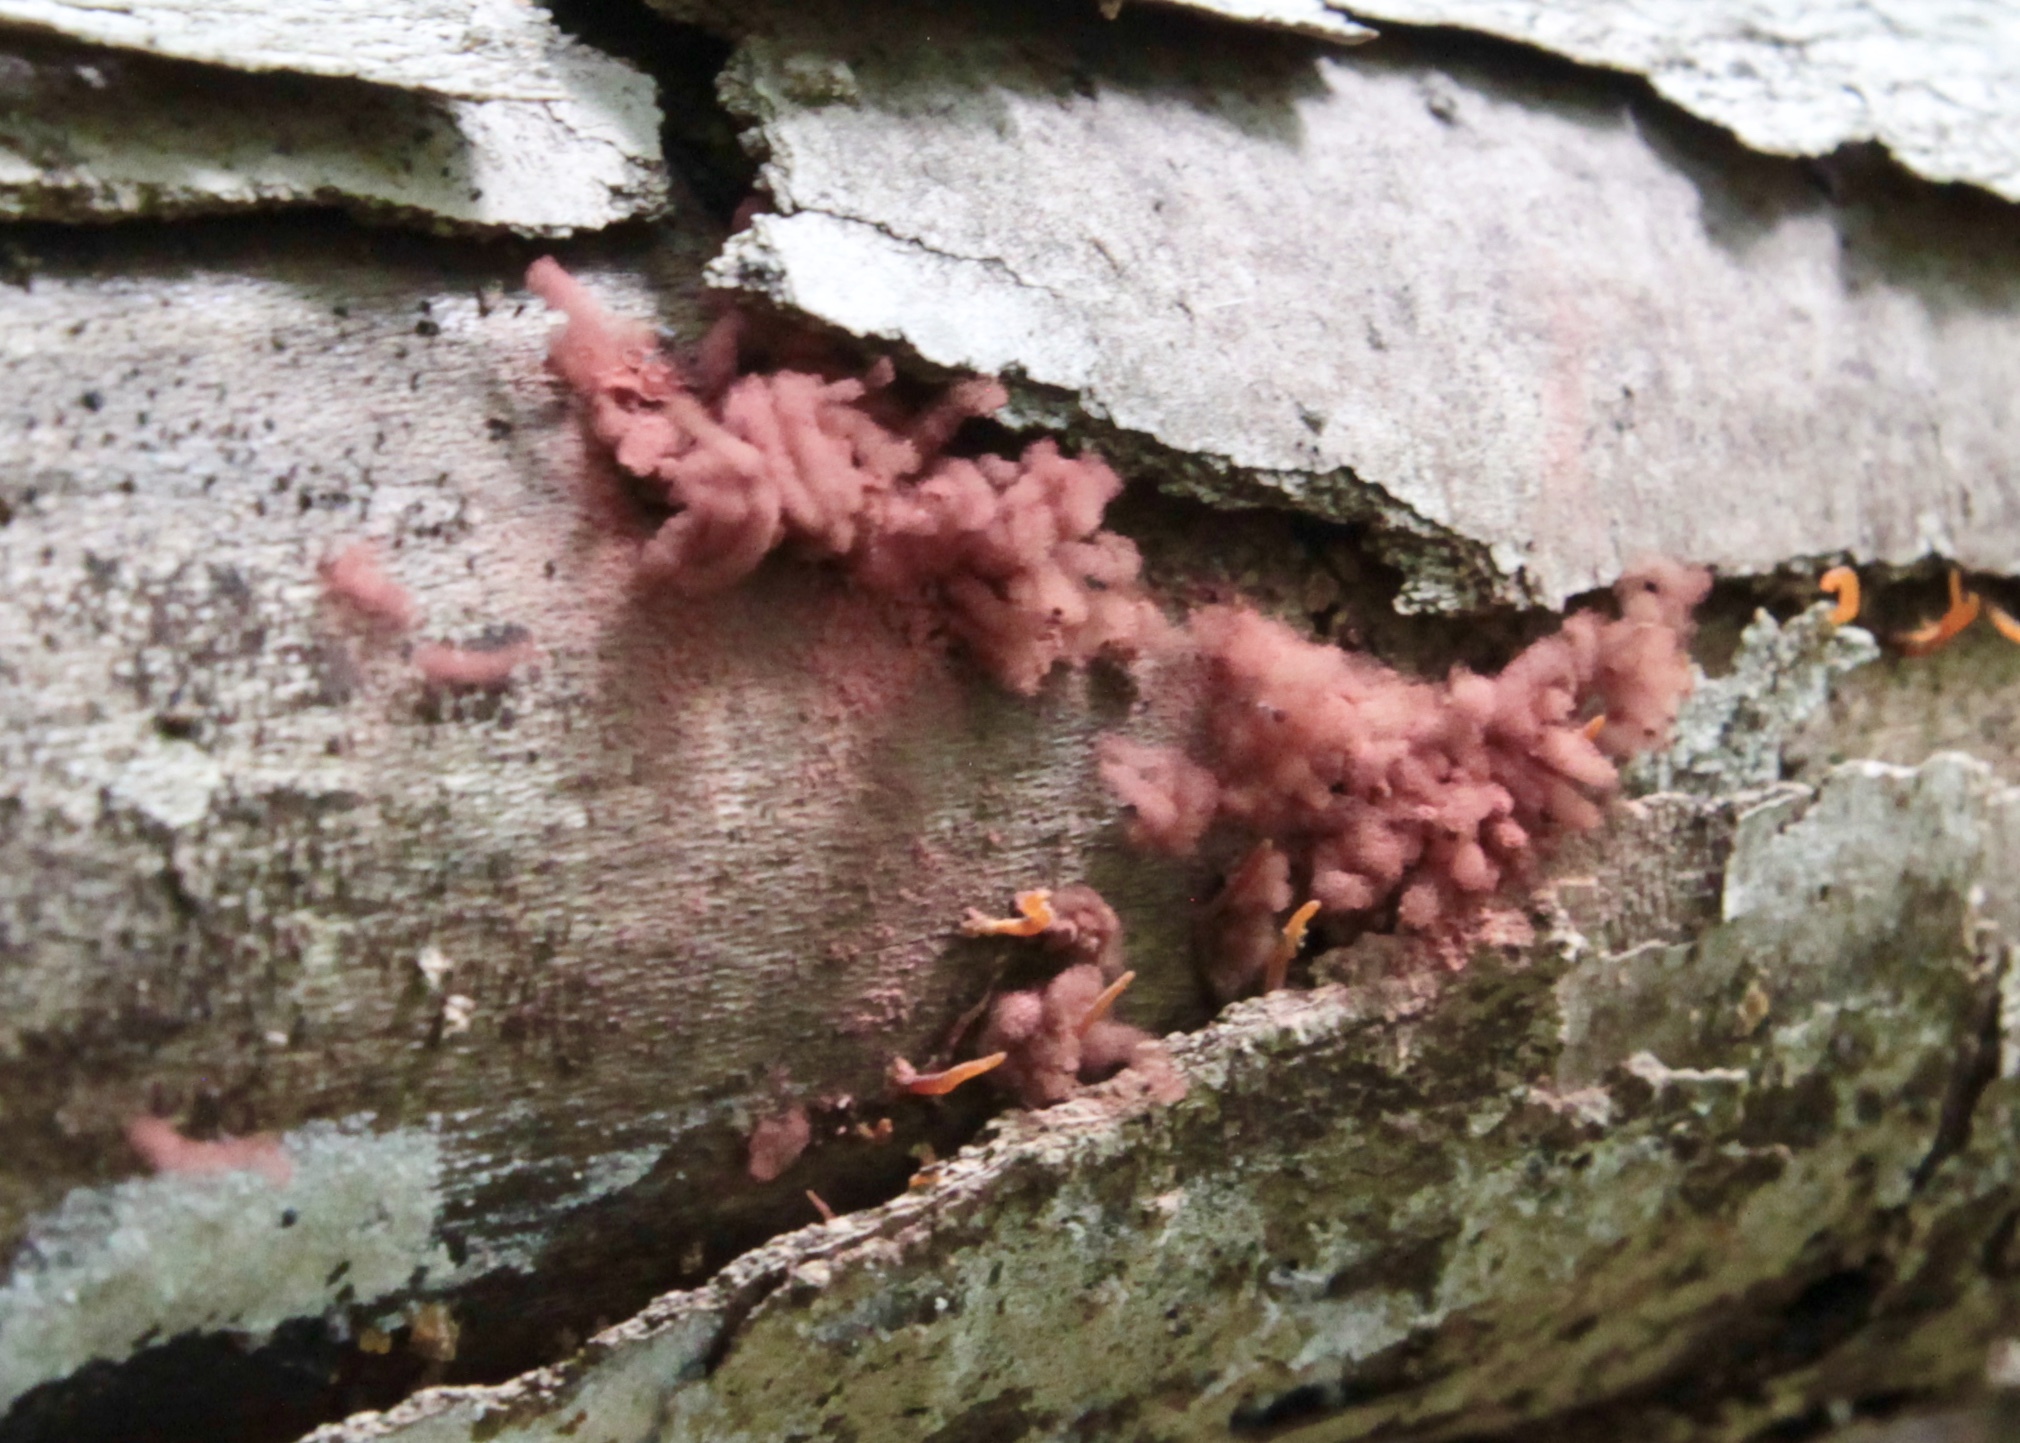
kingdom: Protozoa
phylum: Mycetozoa
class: Myxomycetes
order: Trichiales
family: Arcyriaceae
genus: Arcyria
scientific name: Arcyria denudata
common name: Carnival candy slime mold
